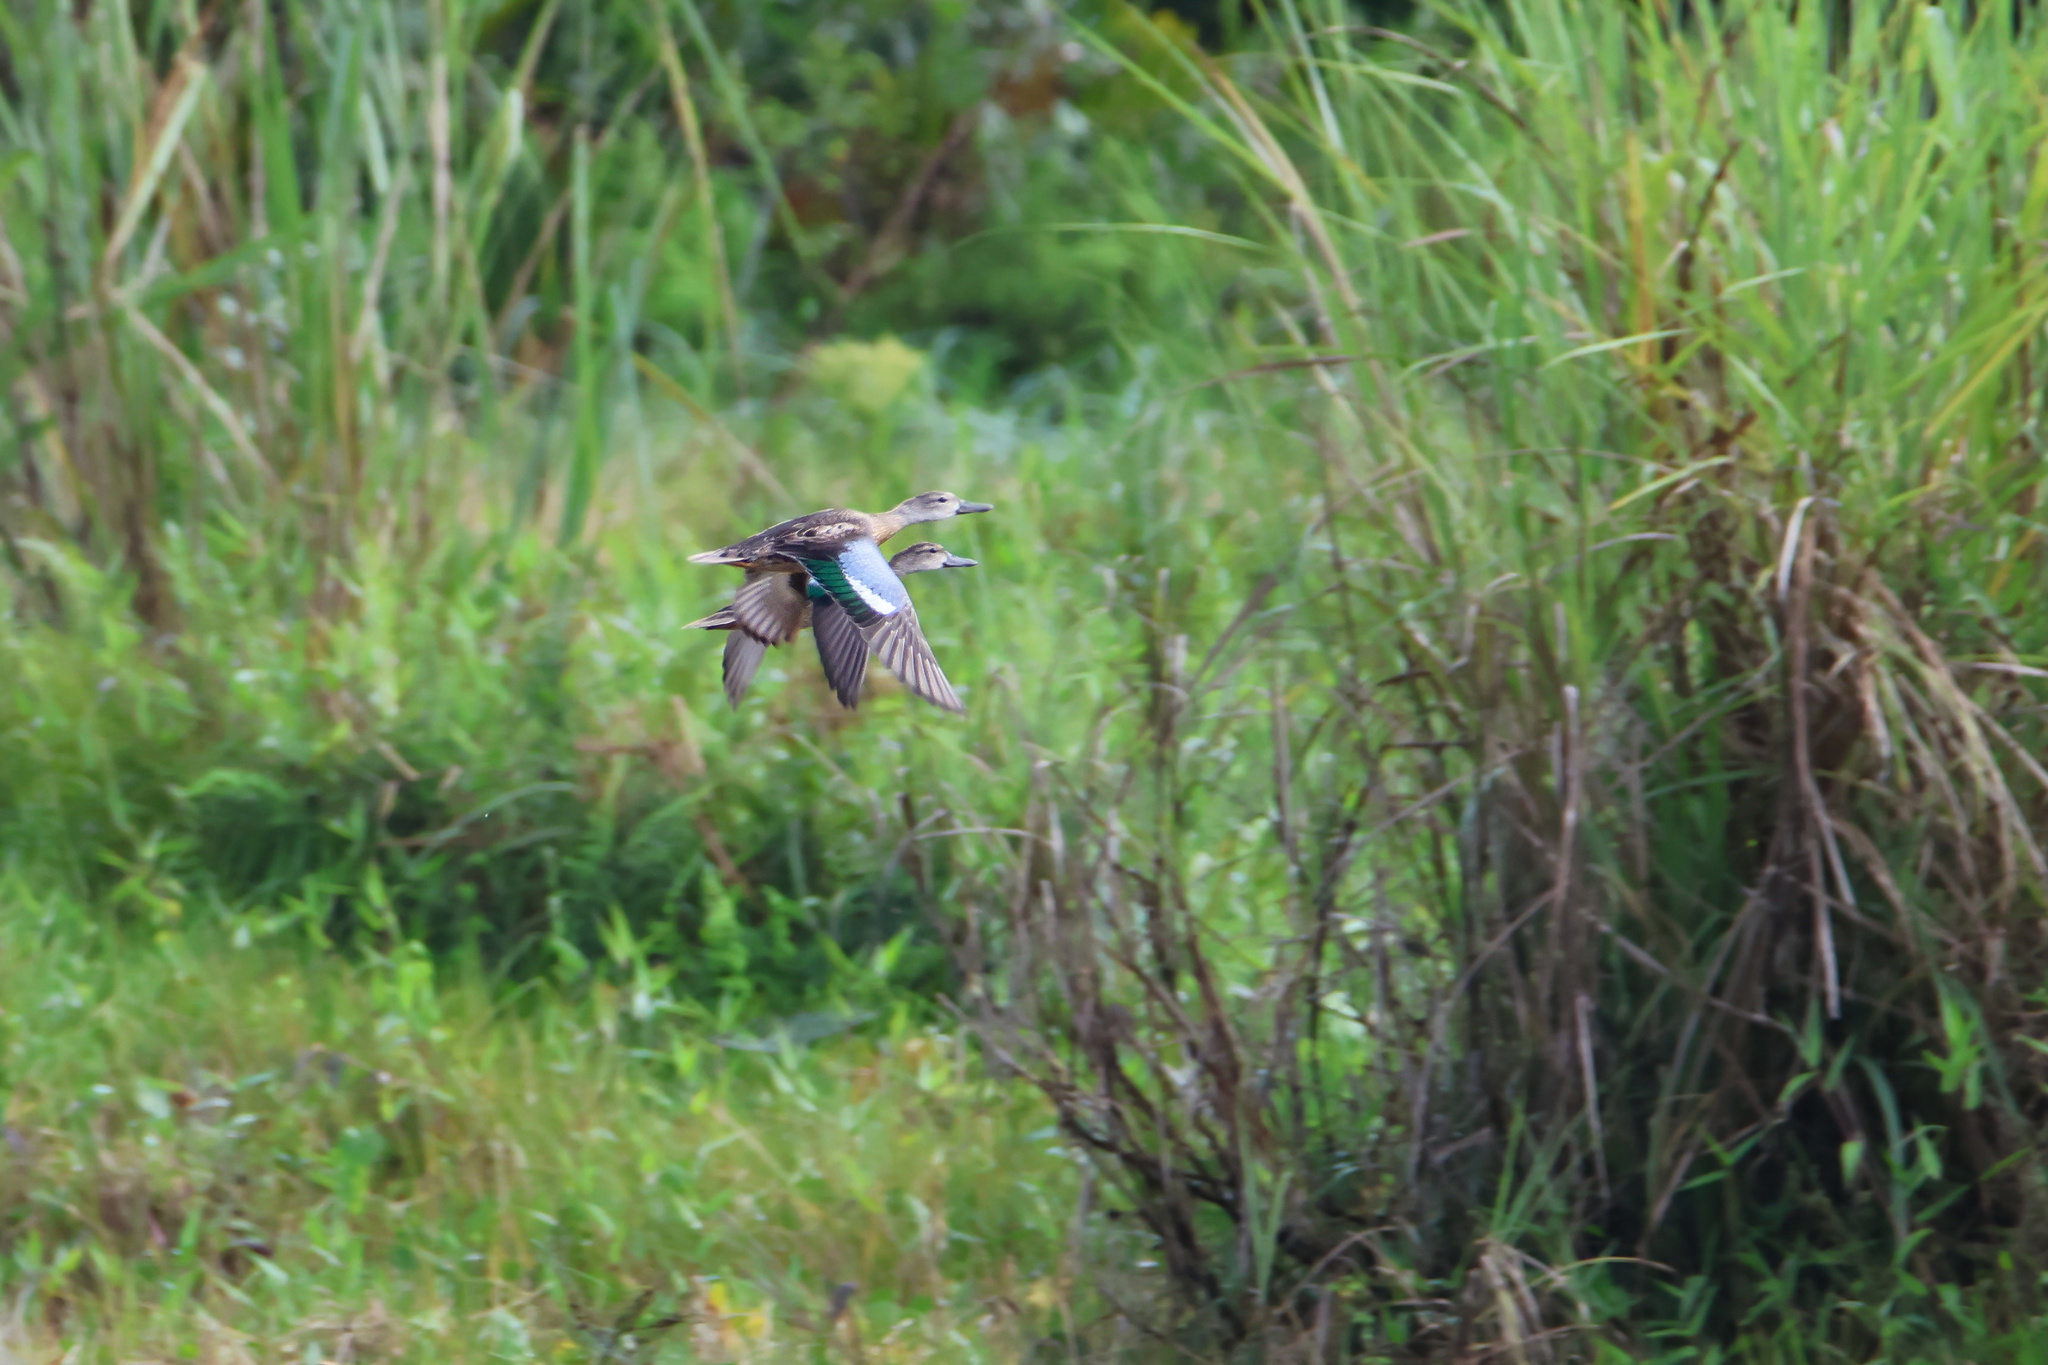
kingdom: Animalia
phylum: Chordata
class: Aves
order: Anseriformes
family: Anatidae
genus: Spatula
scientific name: Spatula discors
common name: Blue-winged teal
